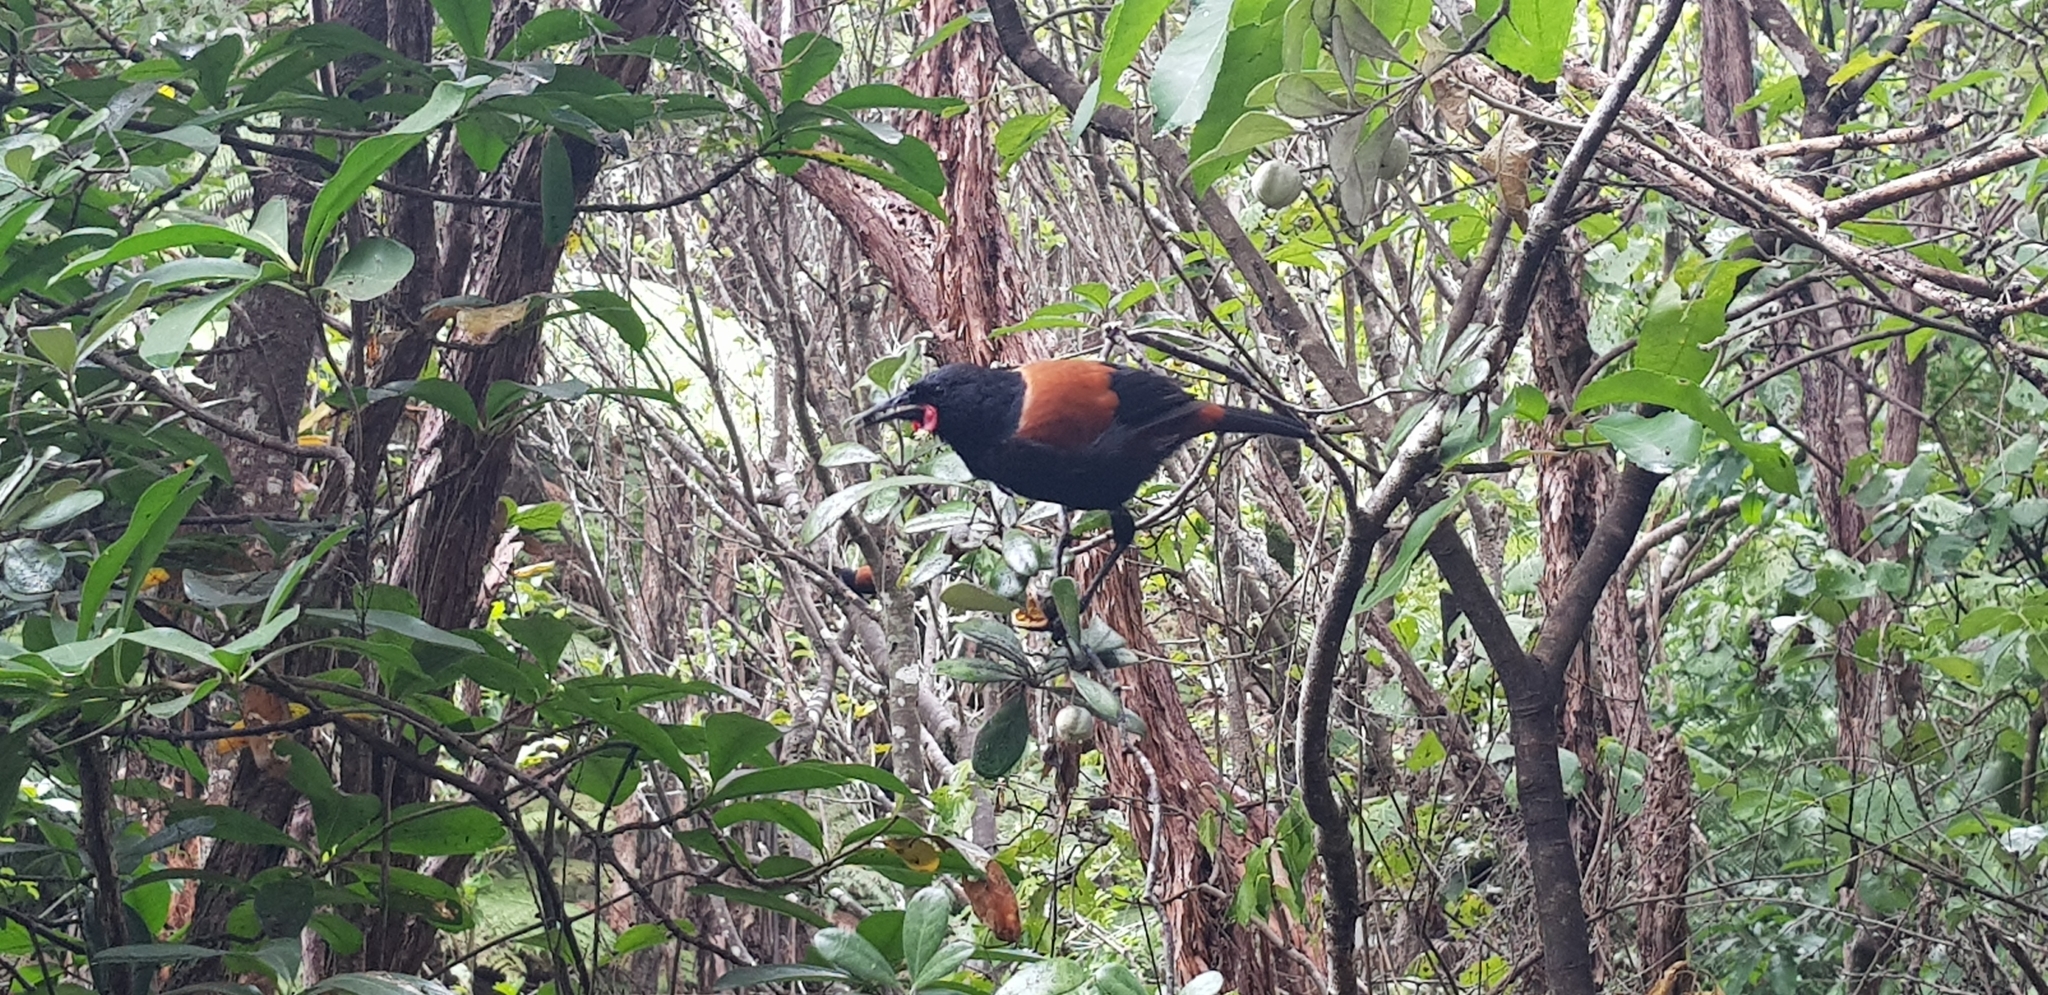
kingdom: Animalia
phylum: Chordata
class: Aves
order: Passeriformes
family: Callaeatidae
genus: Philesturnus
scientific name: Philesturnus carunculatus
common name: South island saddleback
